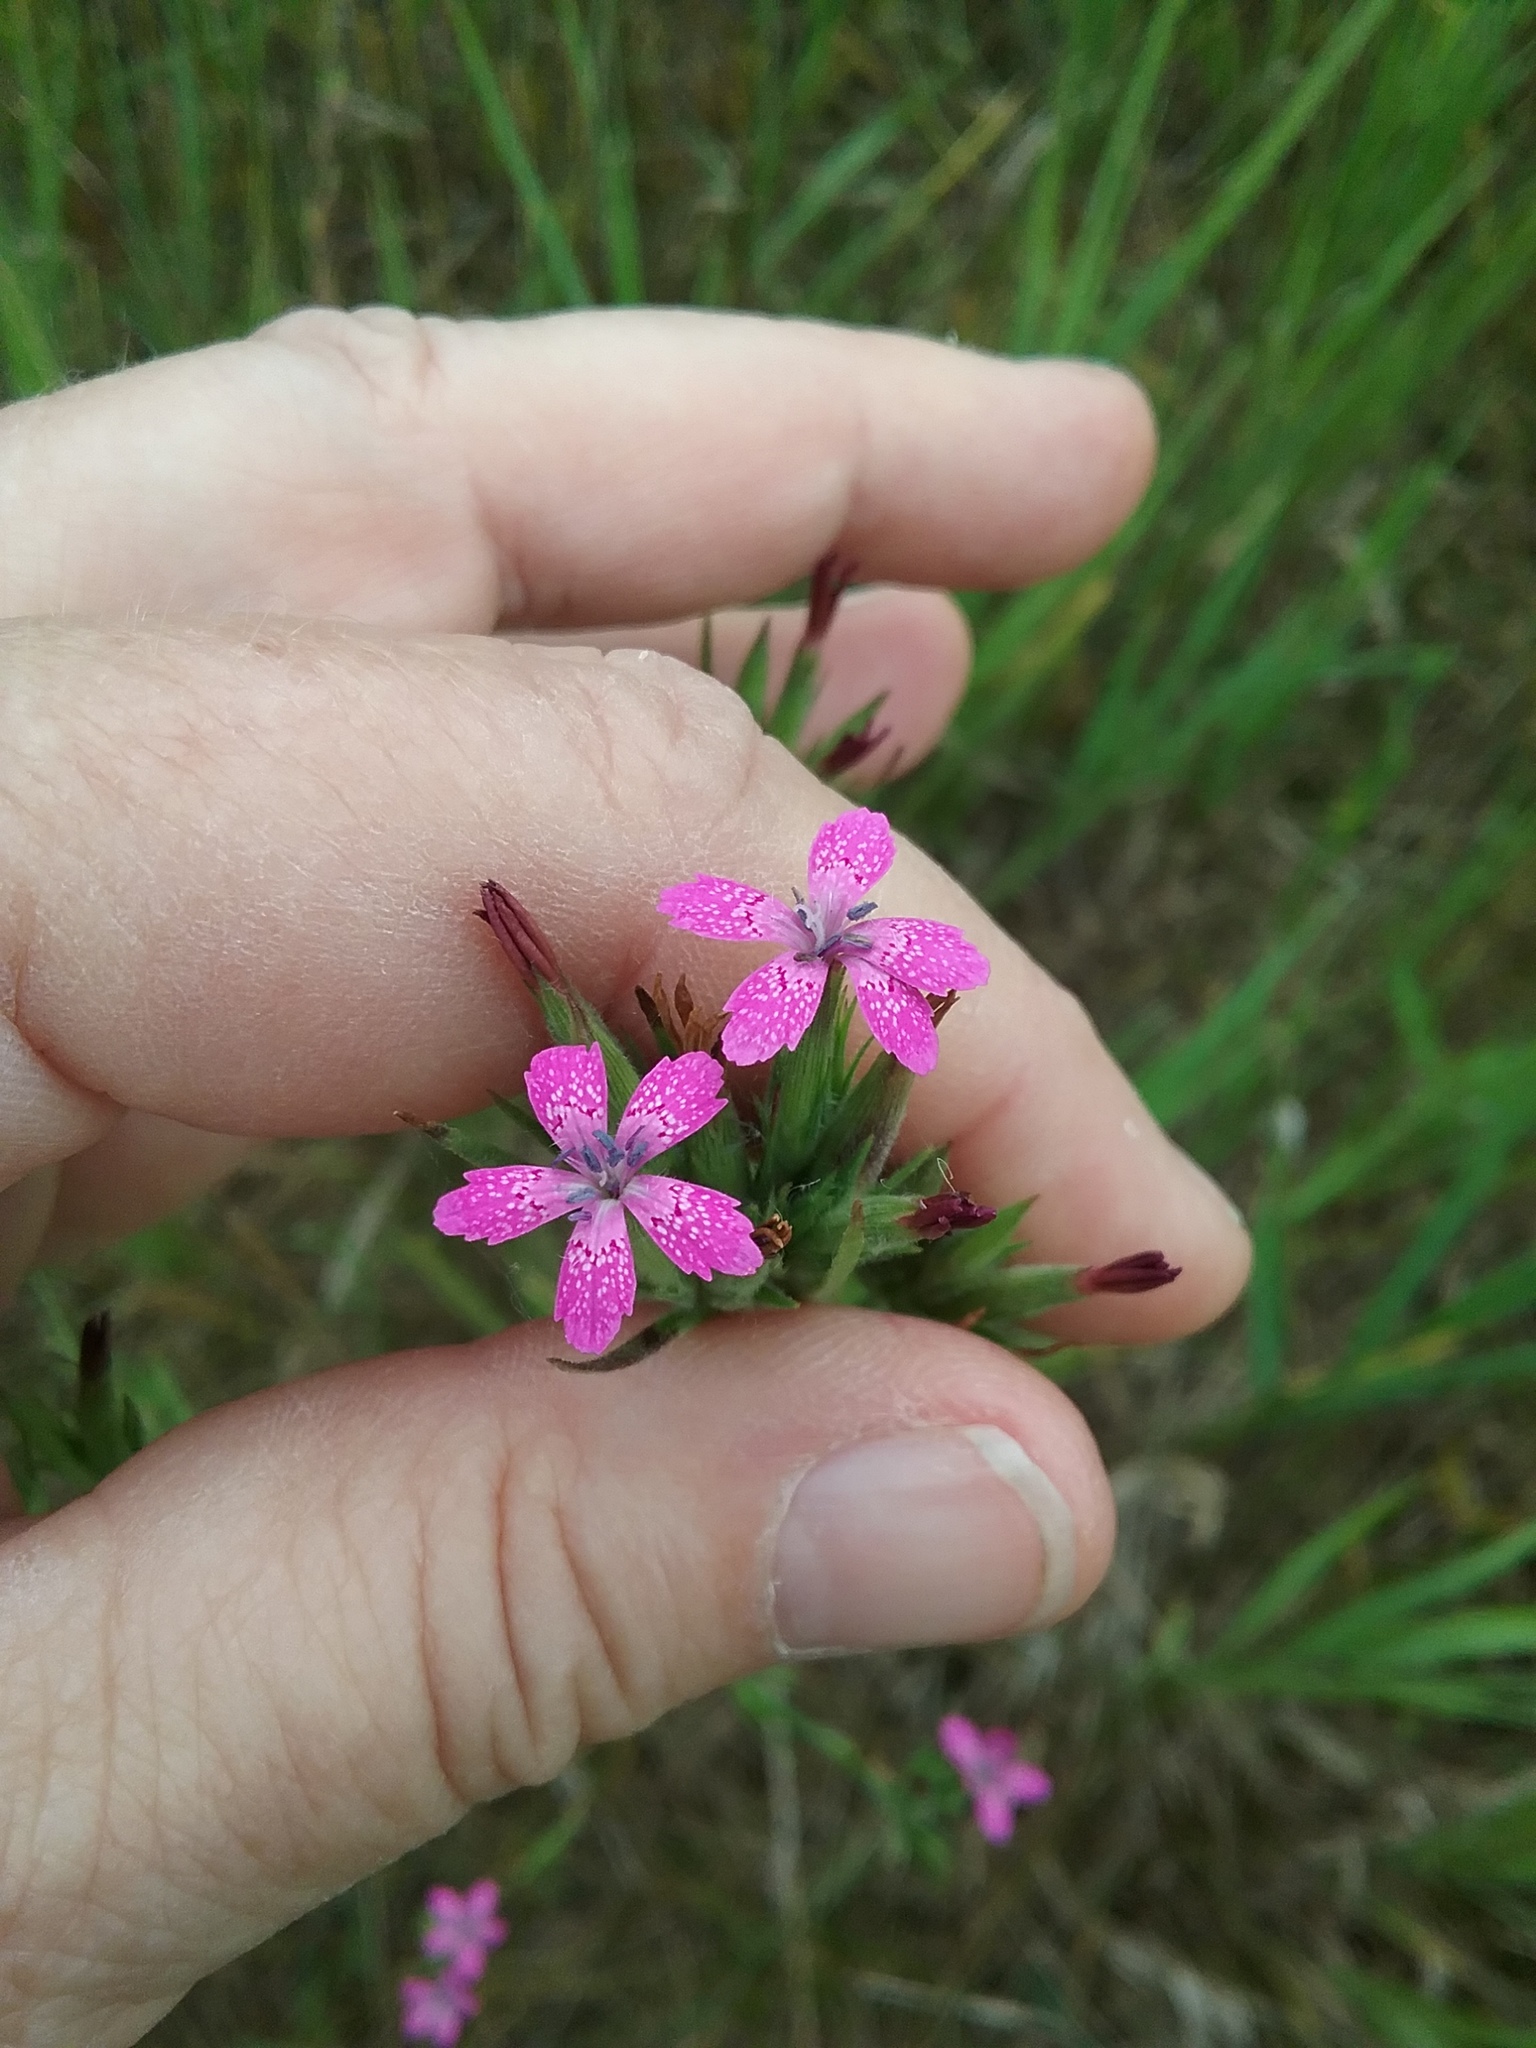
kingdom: Plantae
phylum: Tracheophyta
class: Magnoliopsida
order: Caryophyllales
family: Caryophyllaceae
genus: Dianthus
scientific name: Dianthus armeria
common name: Deptford pink
